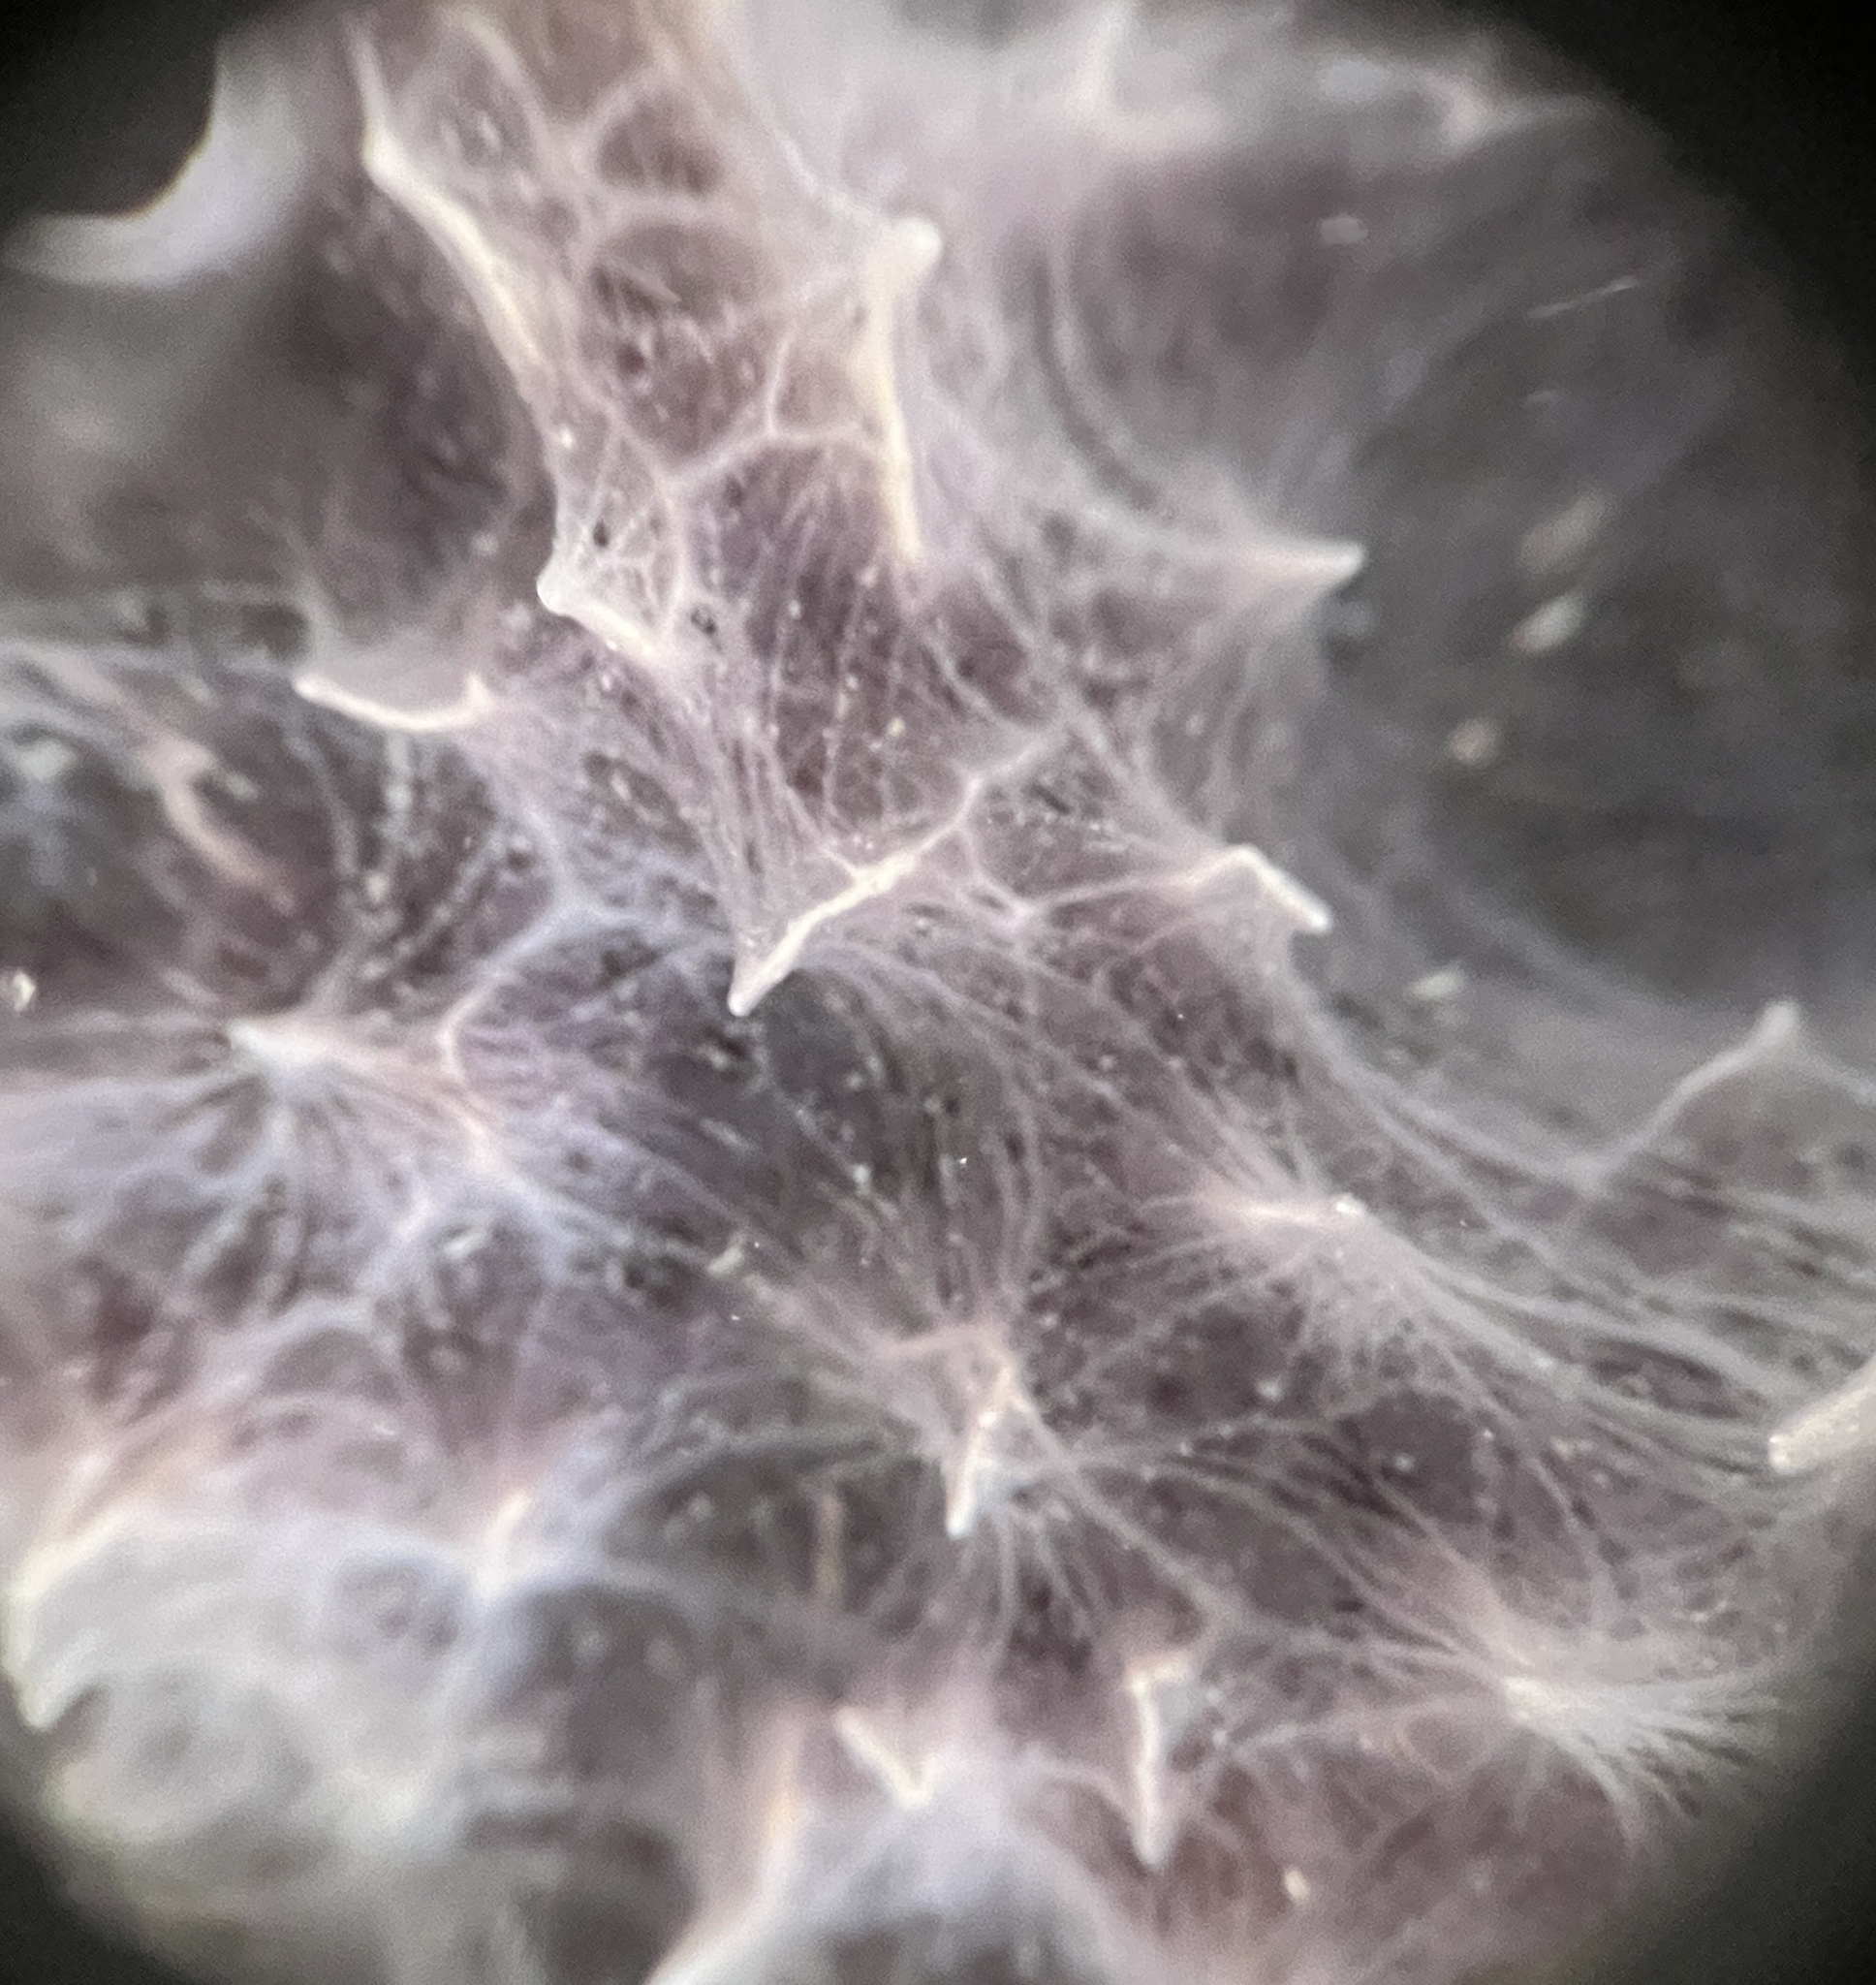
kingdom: Animalia
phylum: Porifera
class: Demospongiae
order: Dictyoceratida
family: Dysideidae
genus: Dysidea
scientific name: Dysidea etheria
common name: Heavenly sponge
